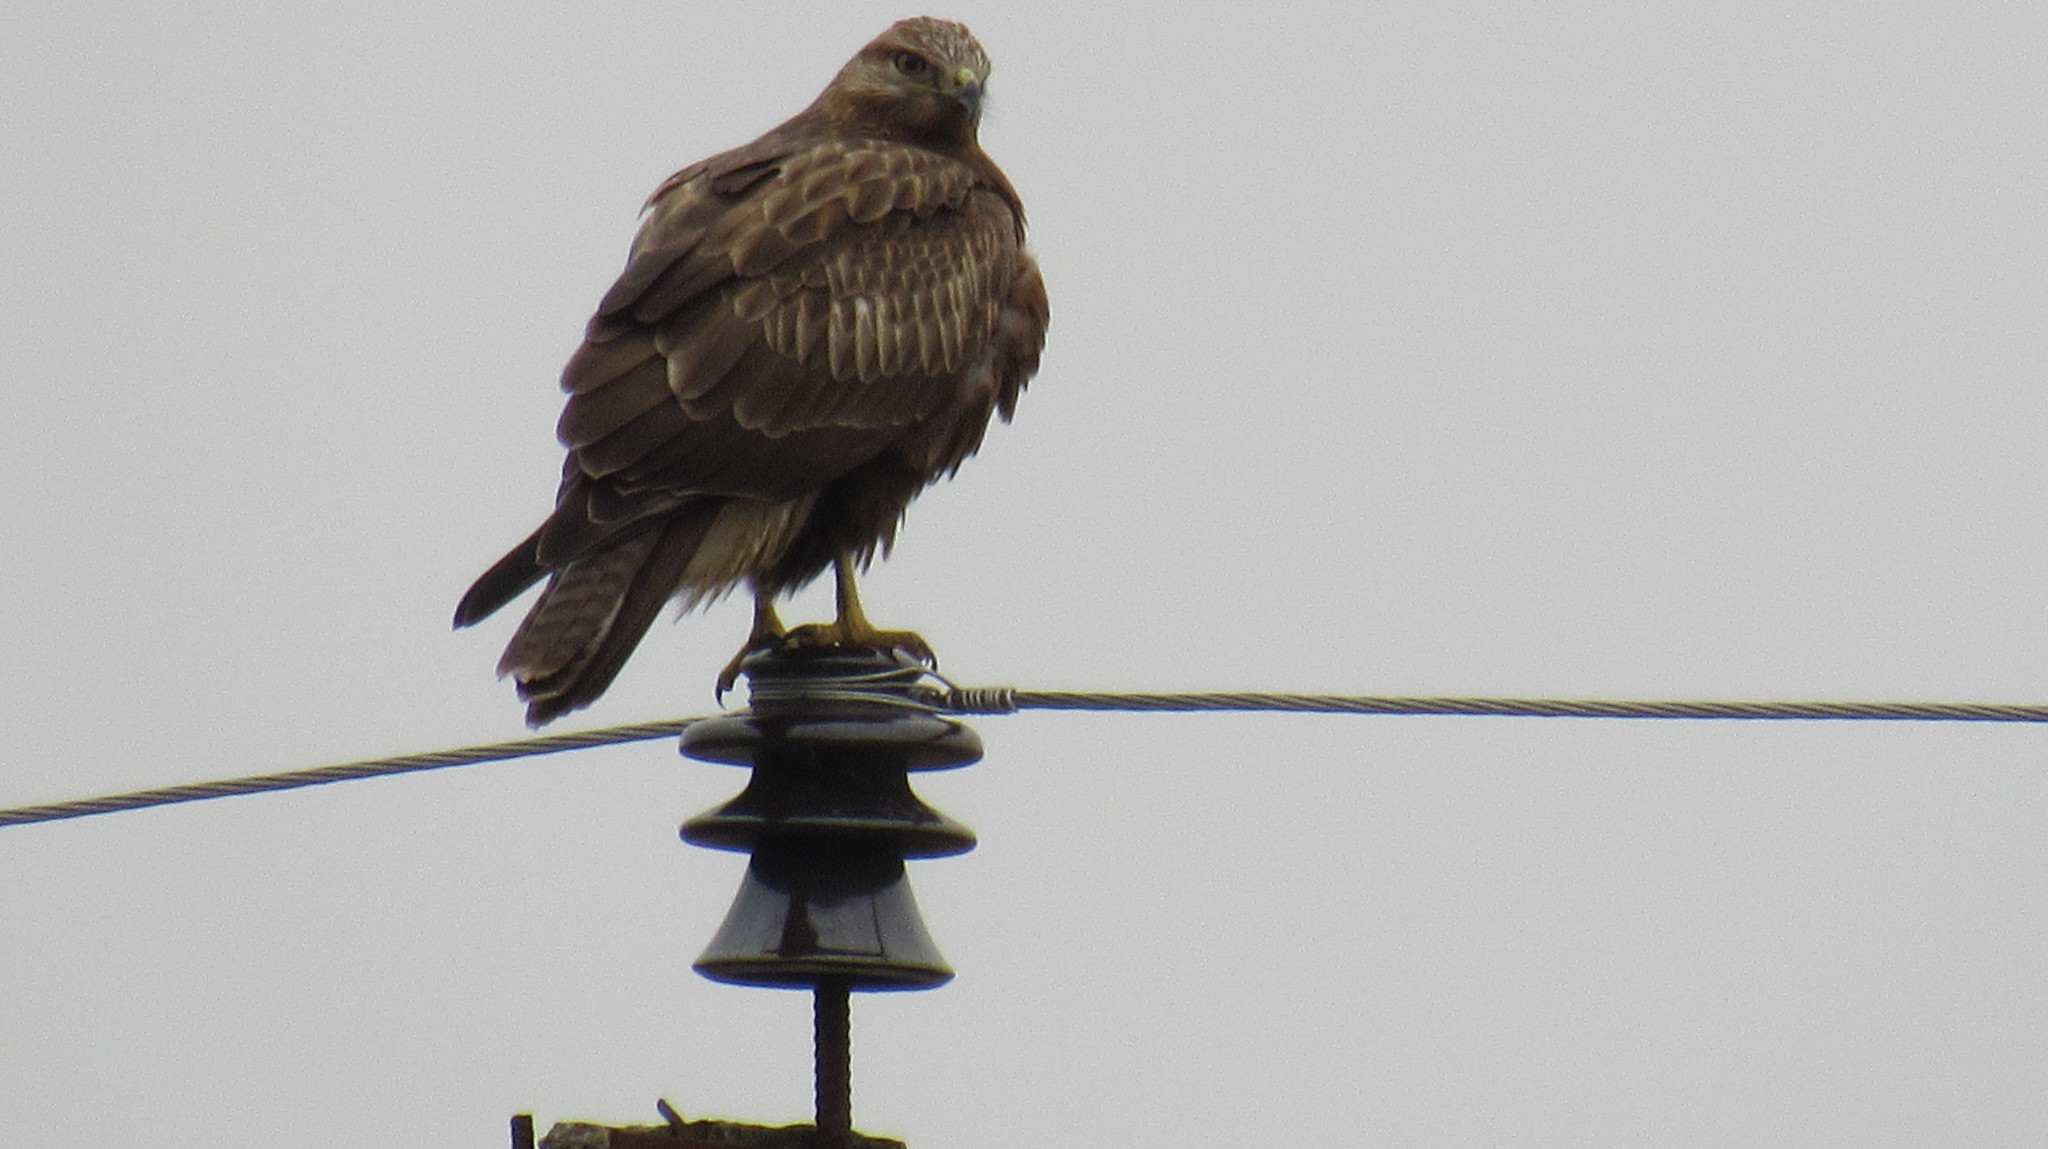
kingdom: Animalia
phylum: Chordata
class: Aves
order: Accipitriformes
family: Accipitridae
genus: Buteo
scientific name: Buteo rufinus
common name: Long-legged buzzard
